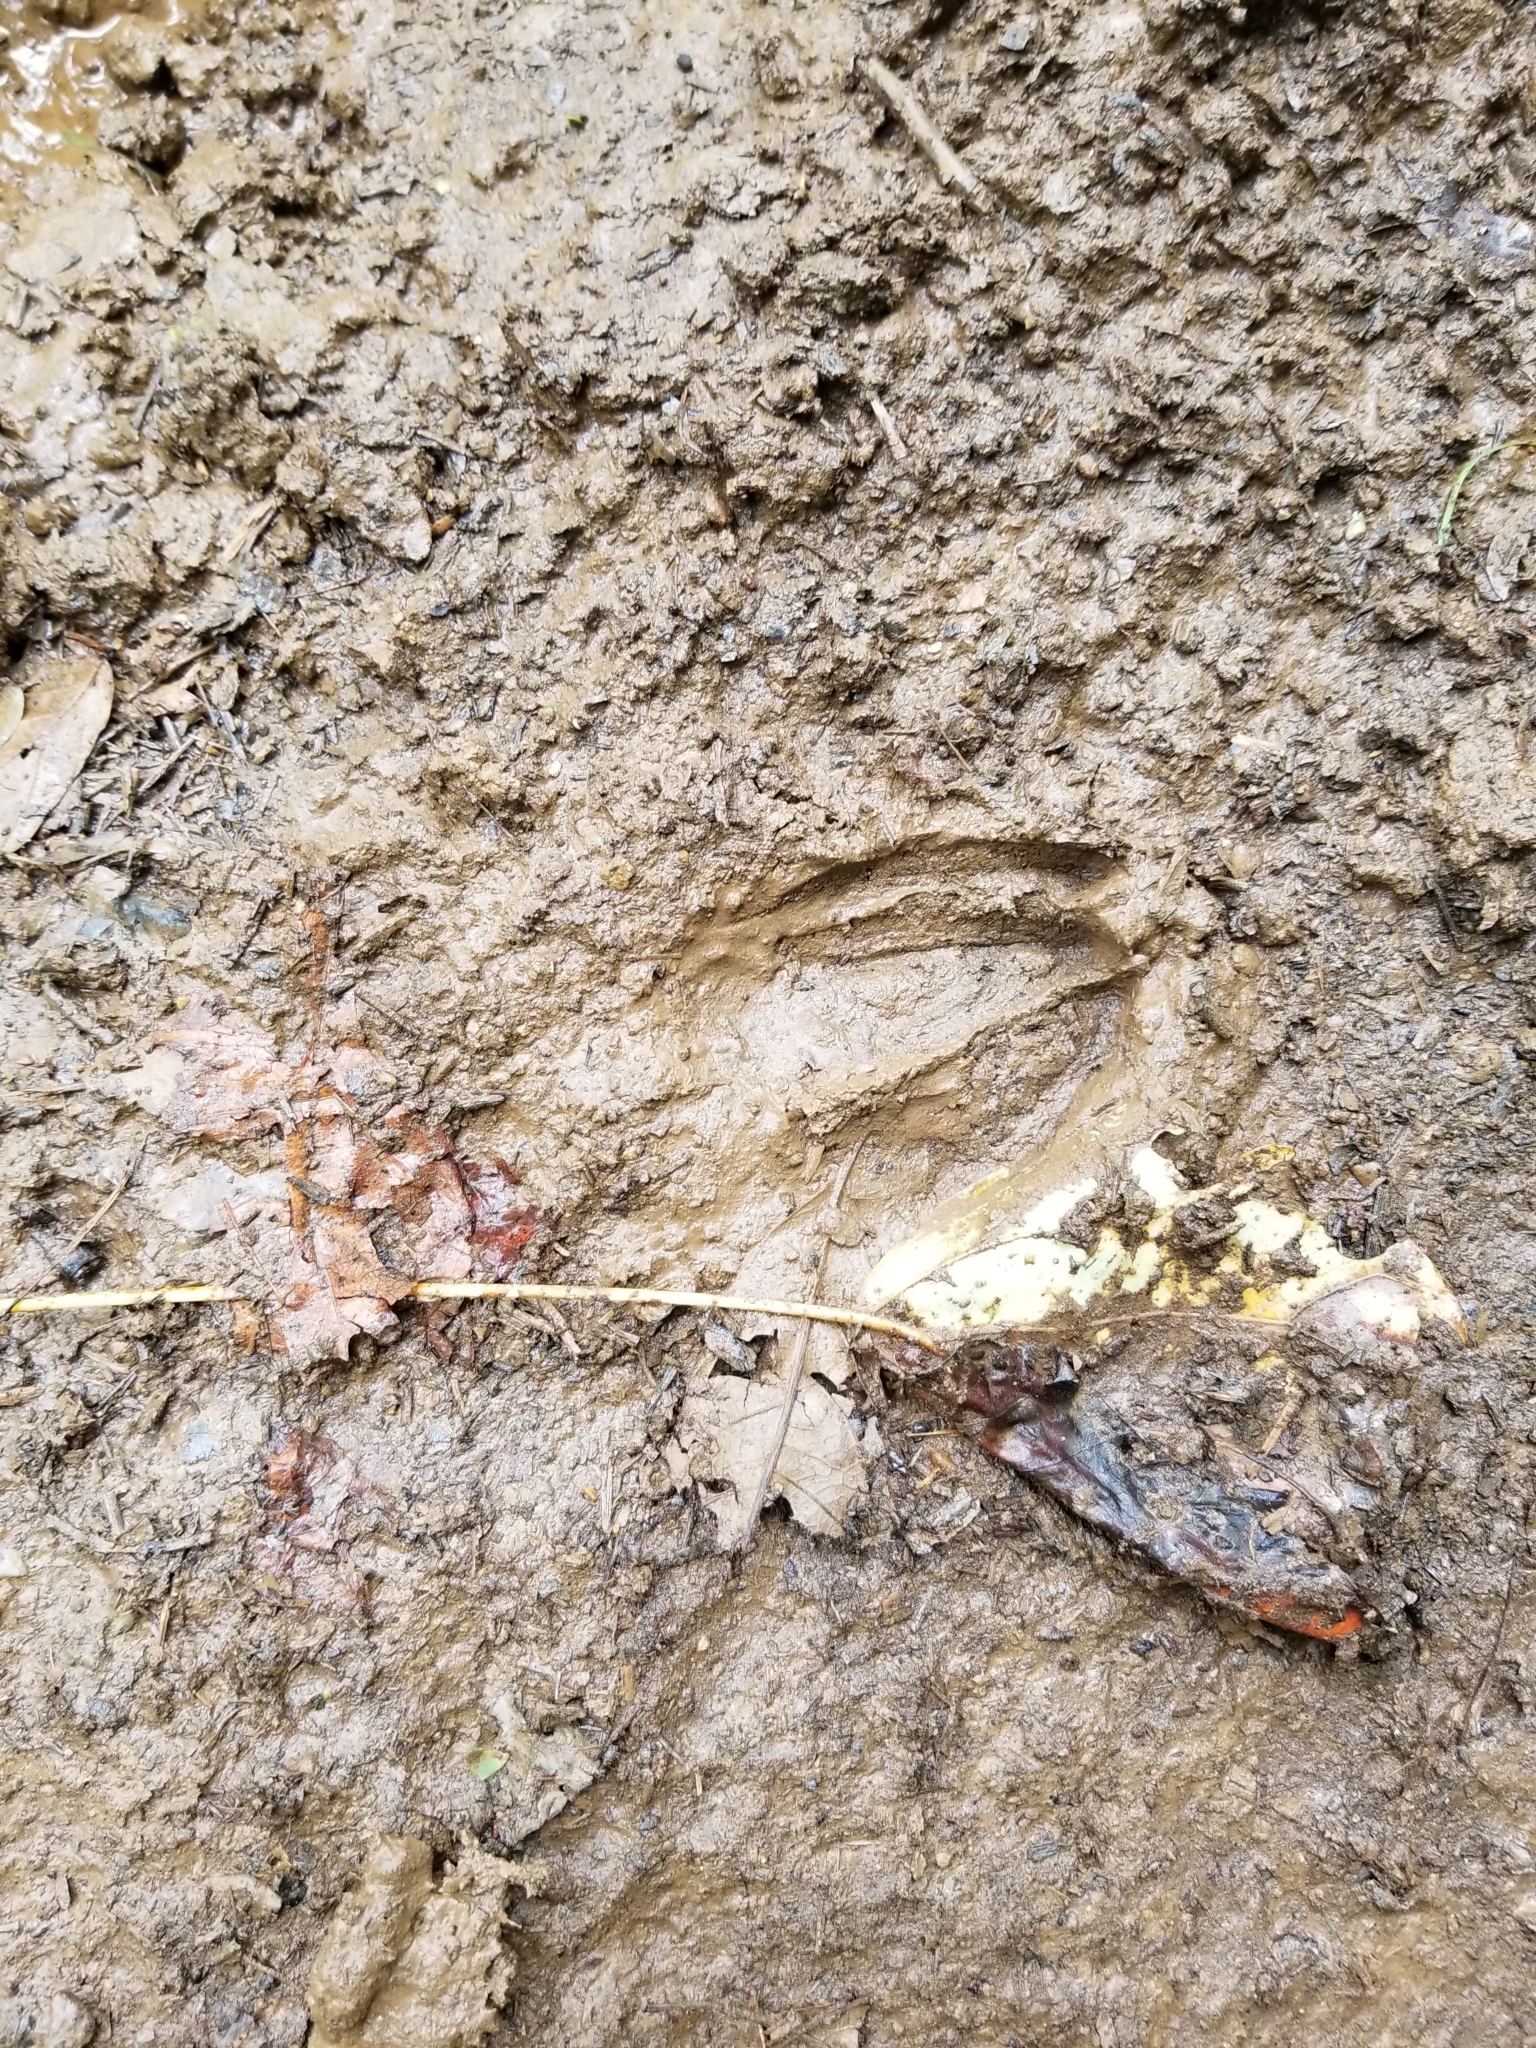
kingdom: Animalia
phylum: Chordata
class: Mammalia
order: Artiodactyla
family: Cervidae
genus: Odocoileus
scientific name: Odocoileus virginianus
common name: White-tailed deer
